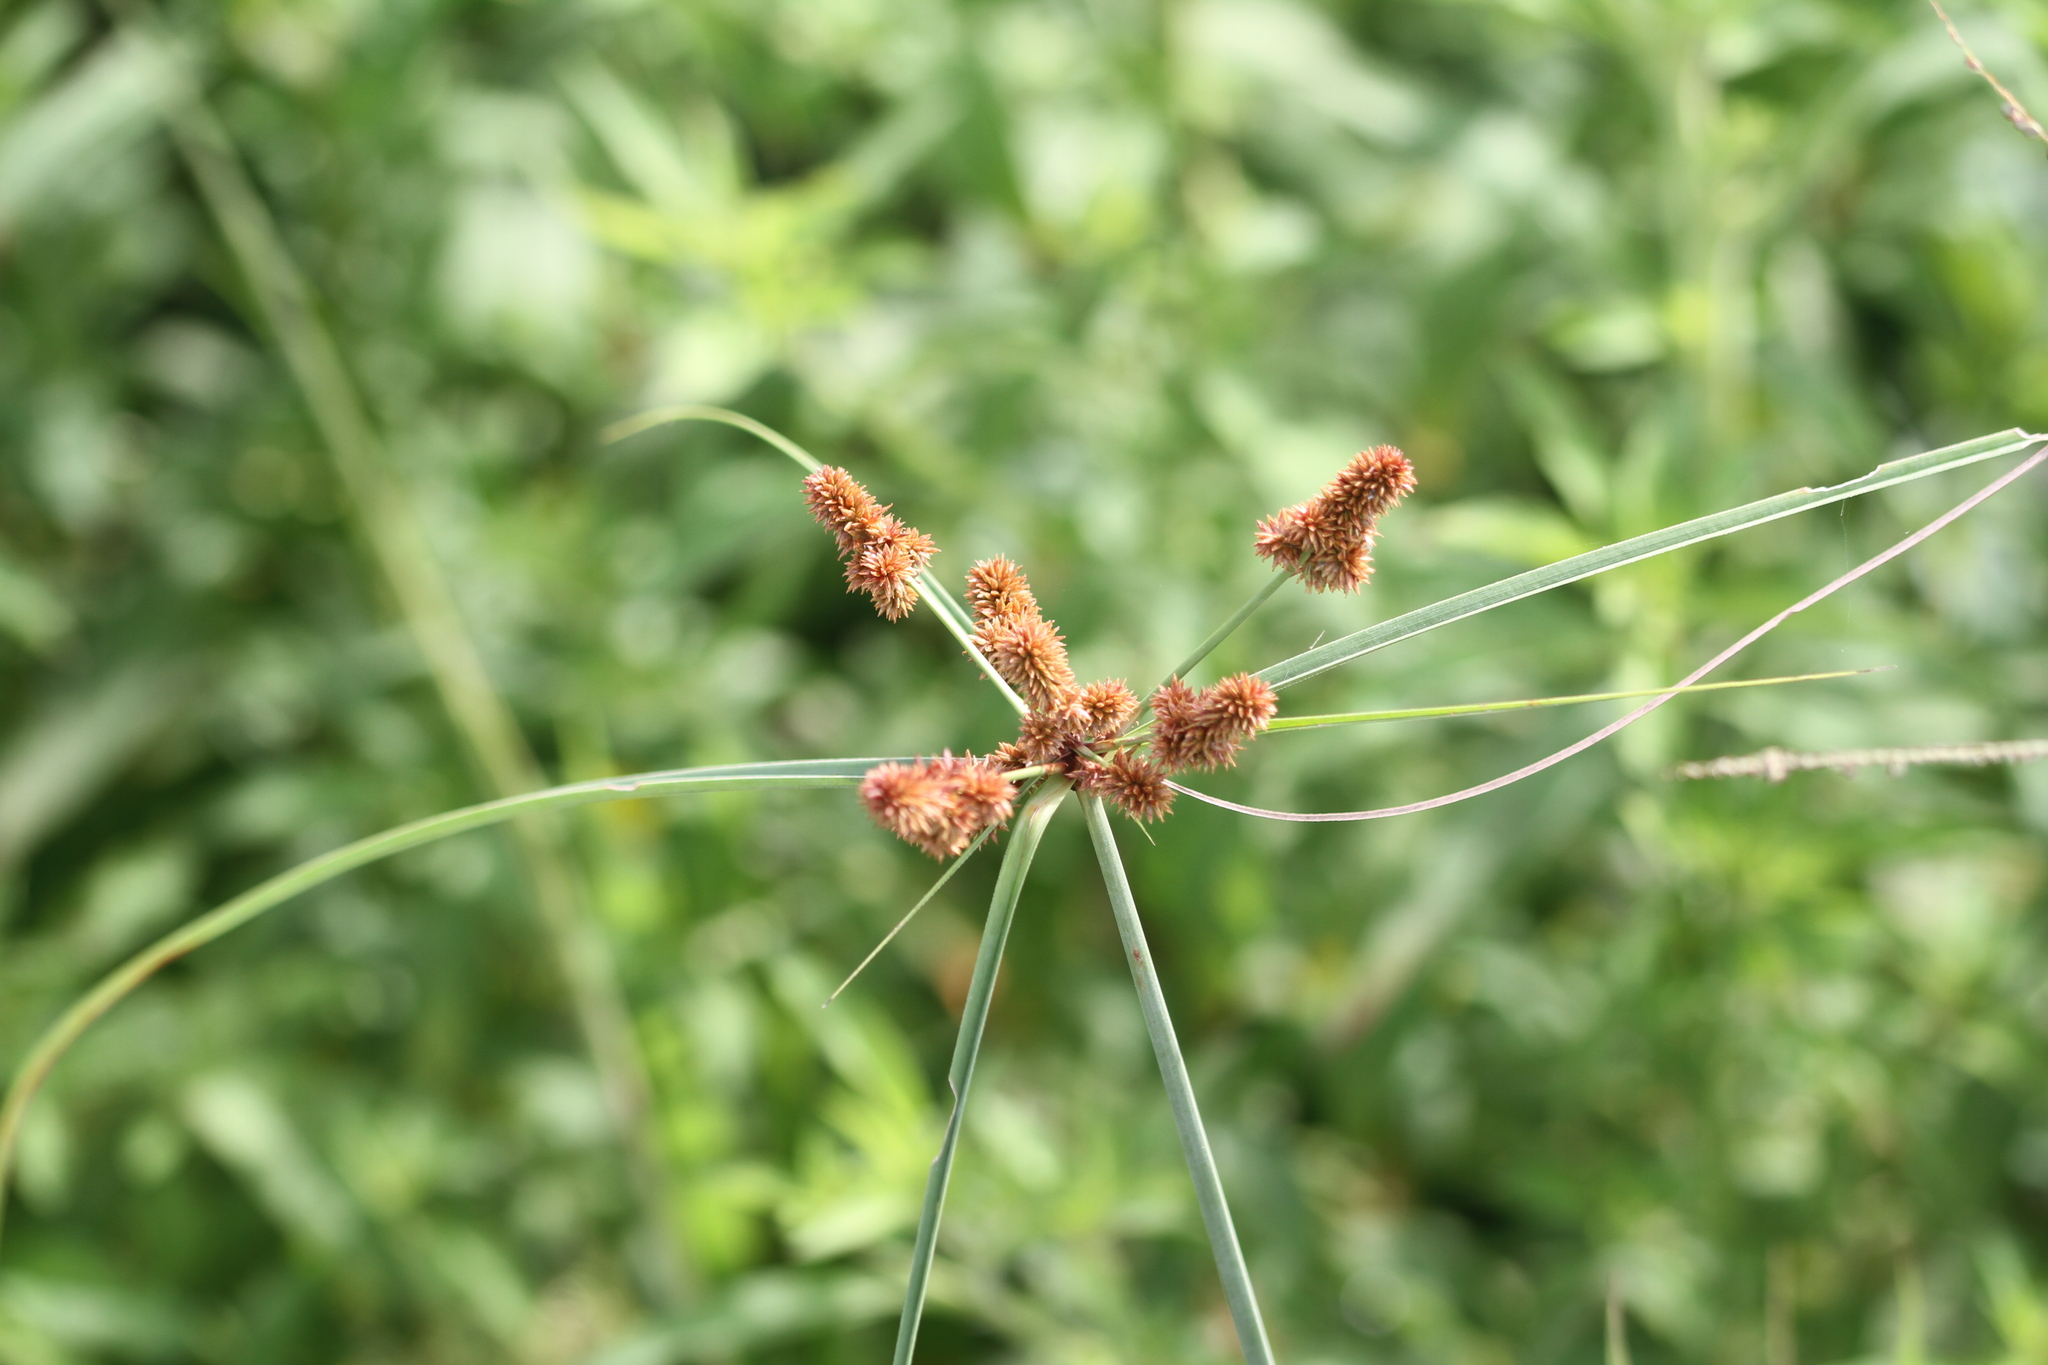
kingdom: Plantae
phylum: Tracheophyta
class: Liliopsida
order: Poales
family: Cyperaceae
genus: Cyperus
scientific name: Cyperus ligularis
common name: Swamp flat sedge
